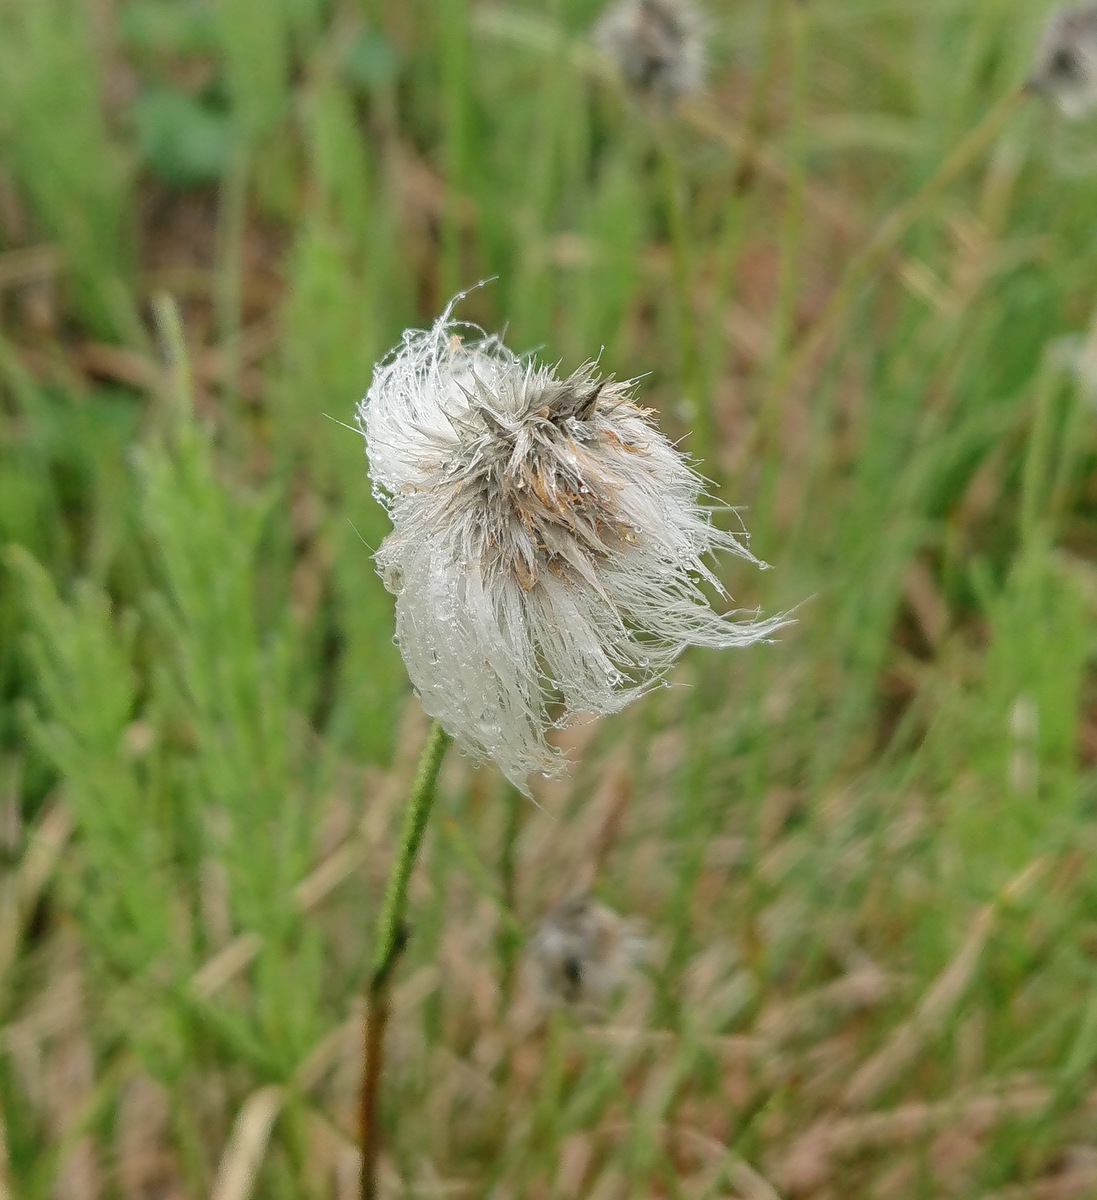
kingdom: Plantae
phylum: Tracheophyta
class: Liliopsida
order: Poales
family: Cyperaceae
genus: Eriophorum
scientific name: Eriophorum vaginatum
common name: Hare's-tail cottongrass
